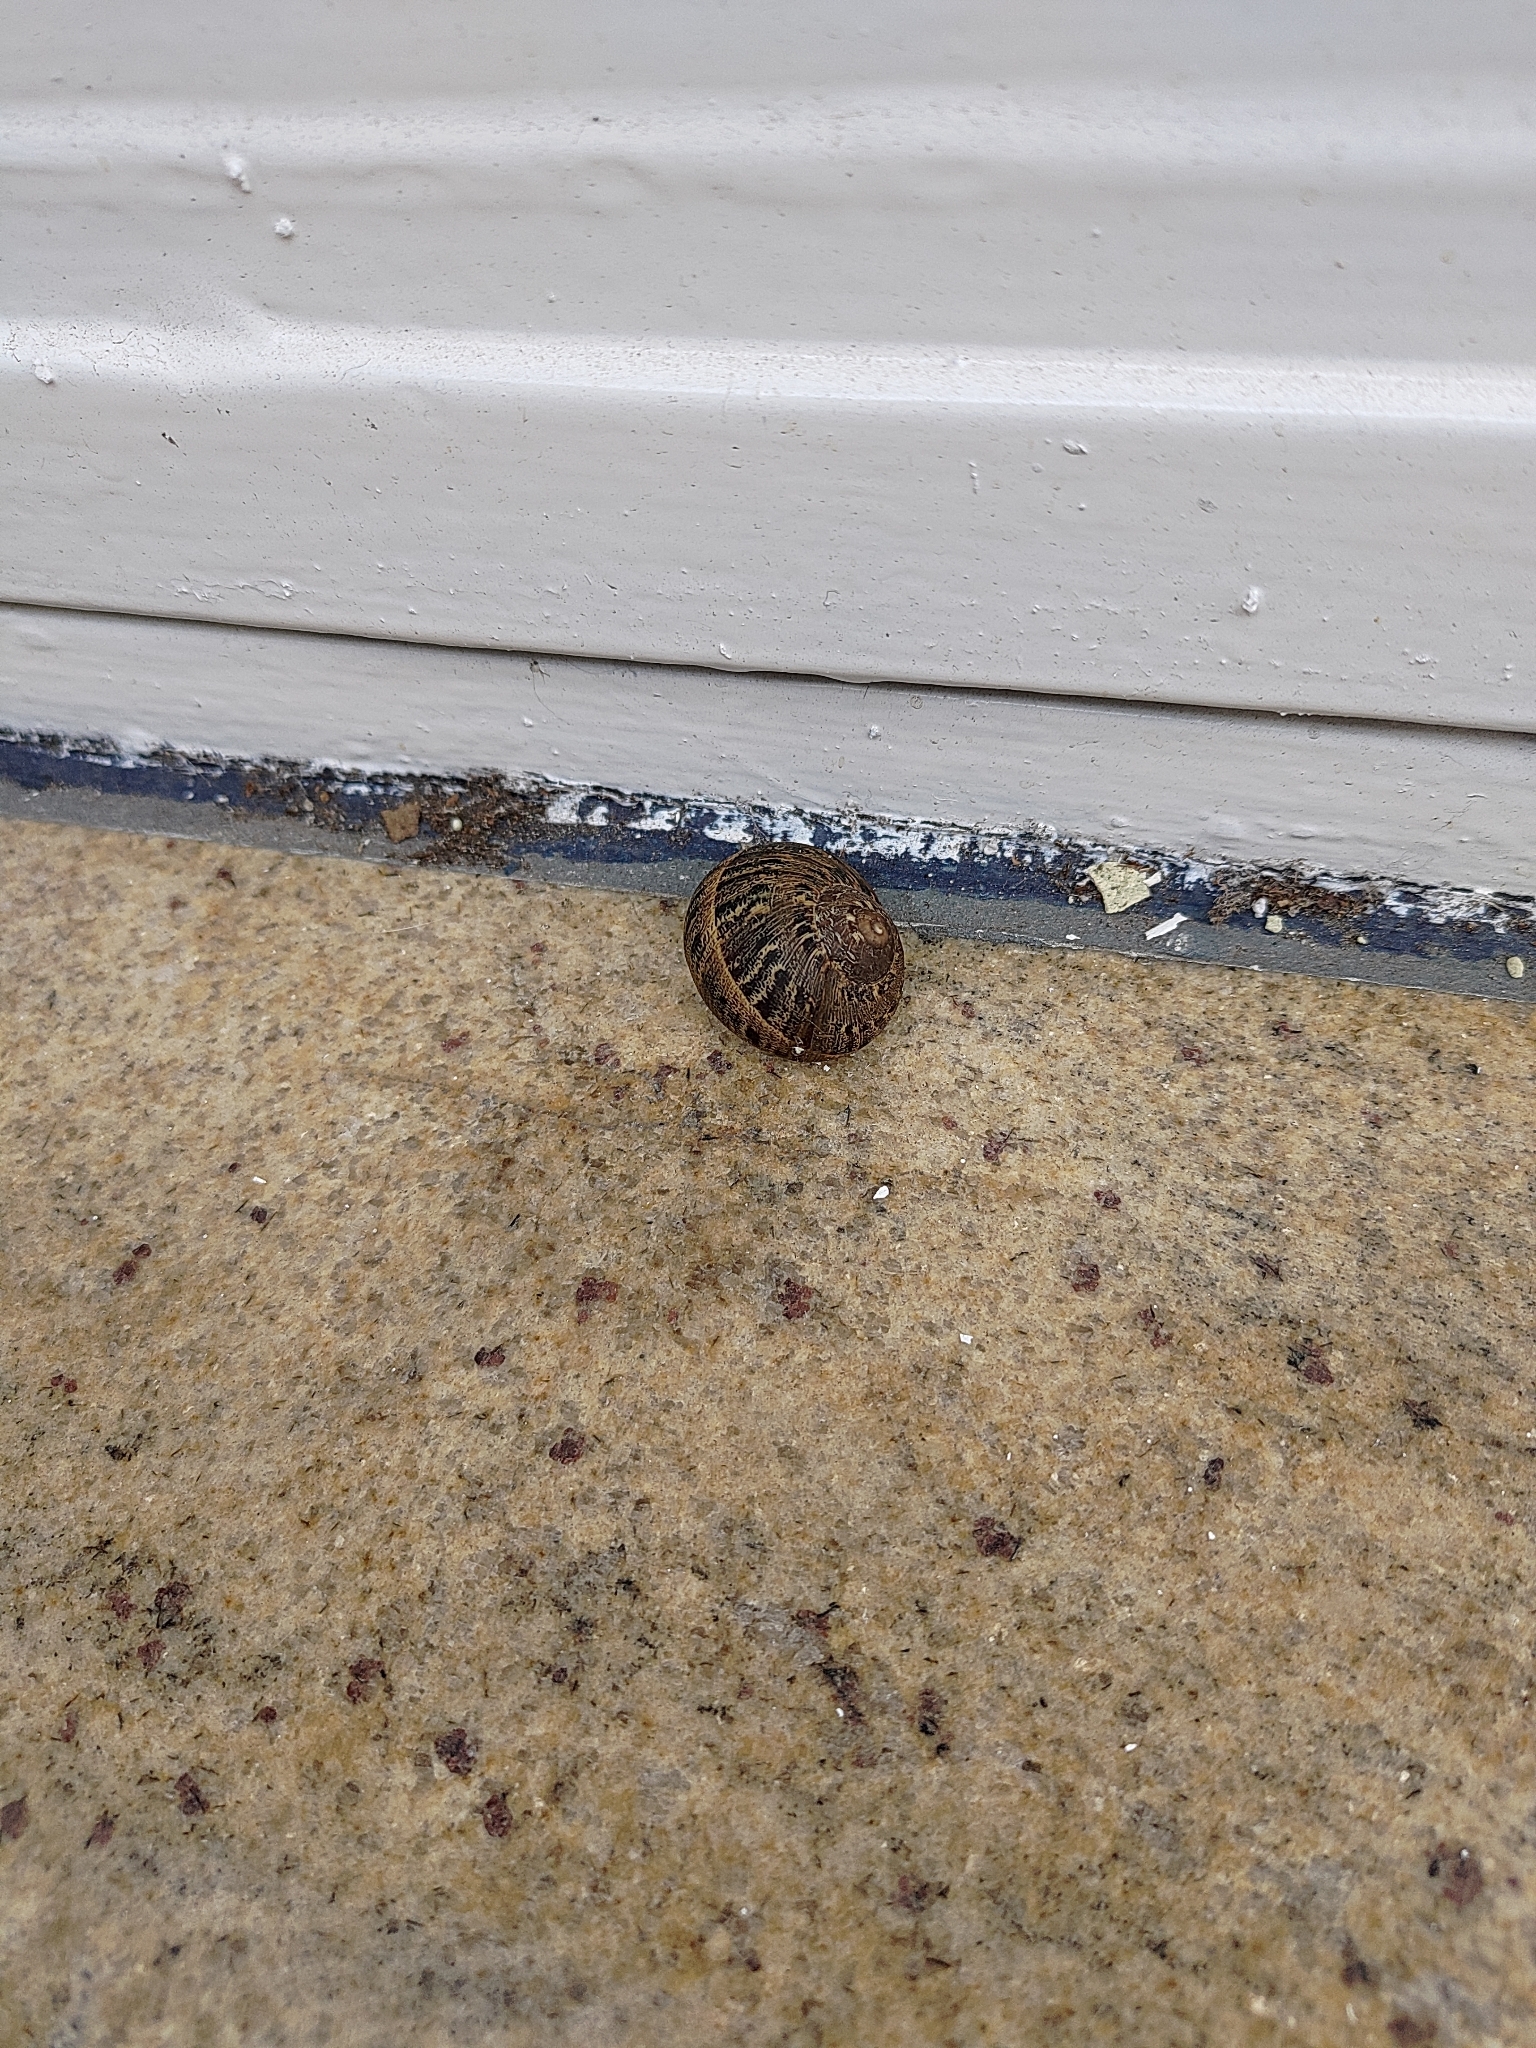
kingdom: Animalia
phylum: Mollusca
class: Gastropoda
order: Stylommatophora
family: Helicidae
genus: Cornu
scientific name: Cornu aspersum
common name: Brown garden snail
